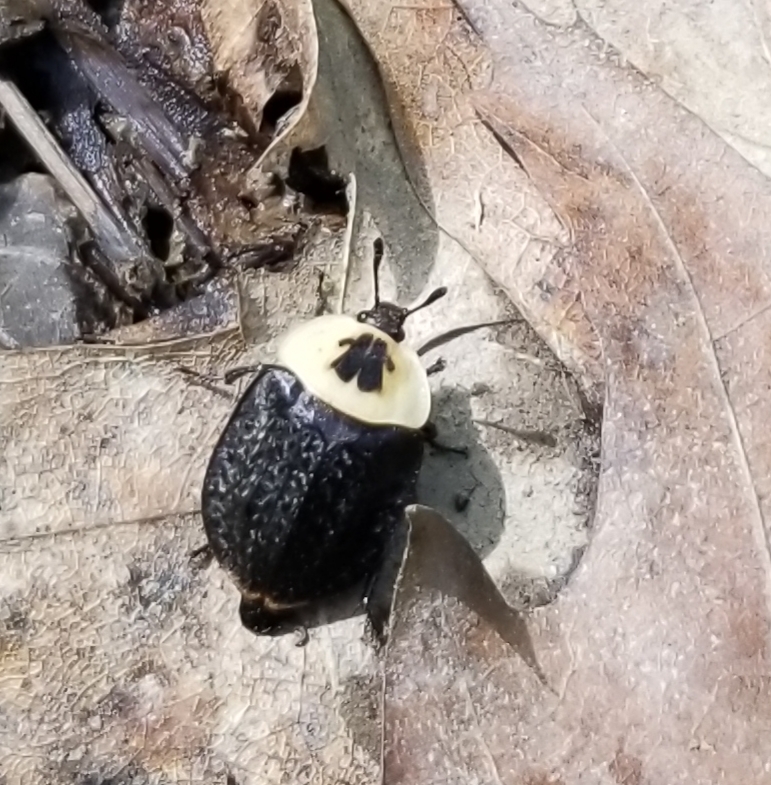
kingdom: Animalia
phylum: Arthropoda
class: Insecta
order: Coleoptera
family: Staphylinidae
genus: Necrophila
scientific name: Necrophila americana
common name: American carrion beetle
